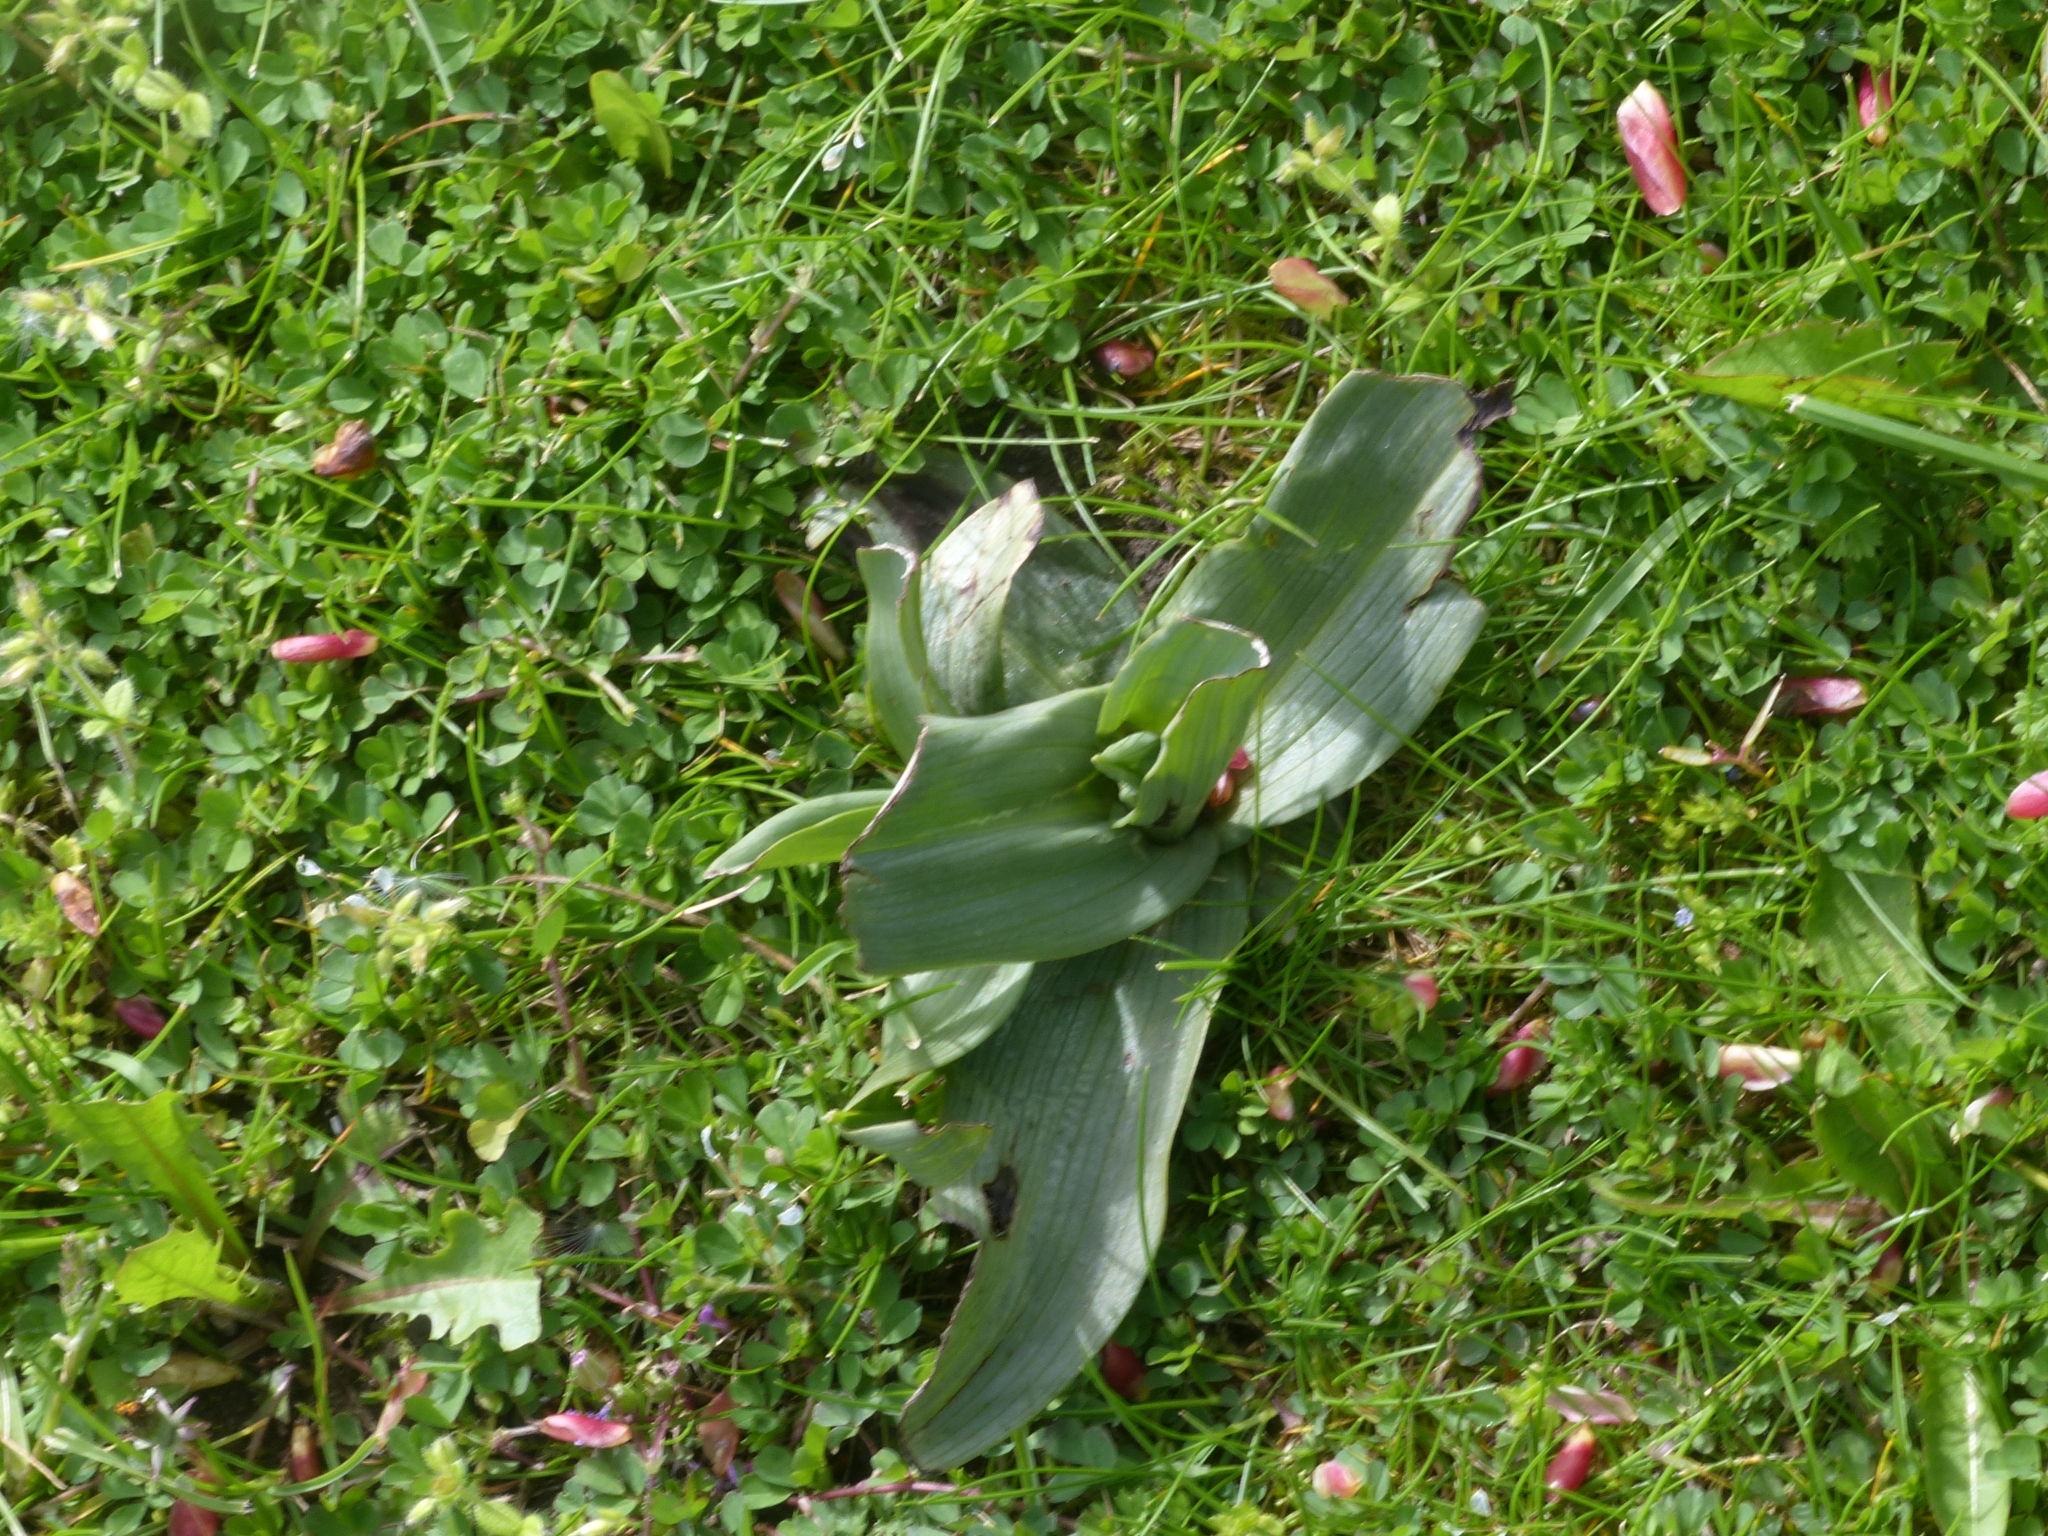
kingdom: Plantae
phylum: Tracheophyta
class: Liliopsida
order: Asparagales
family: Orchidaceae
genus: Ophrys
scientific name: Ophrys apifera
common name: Bee orchid
